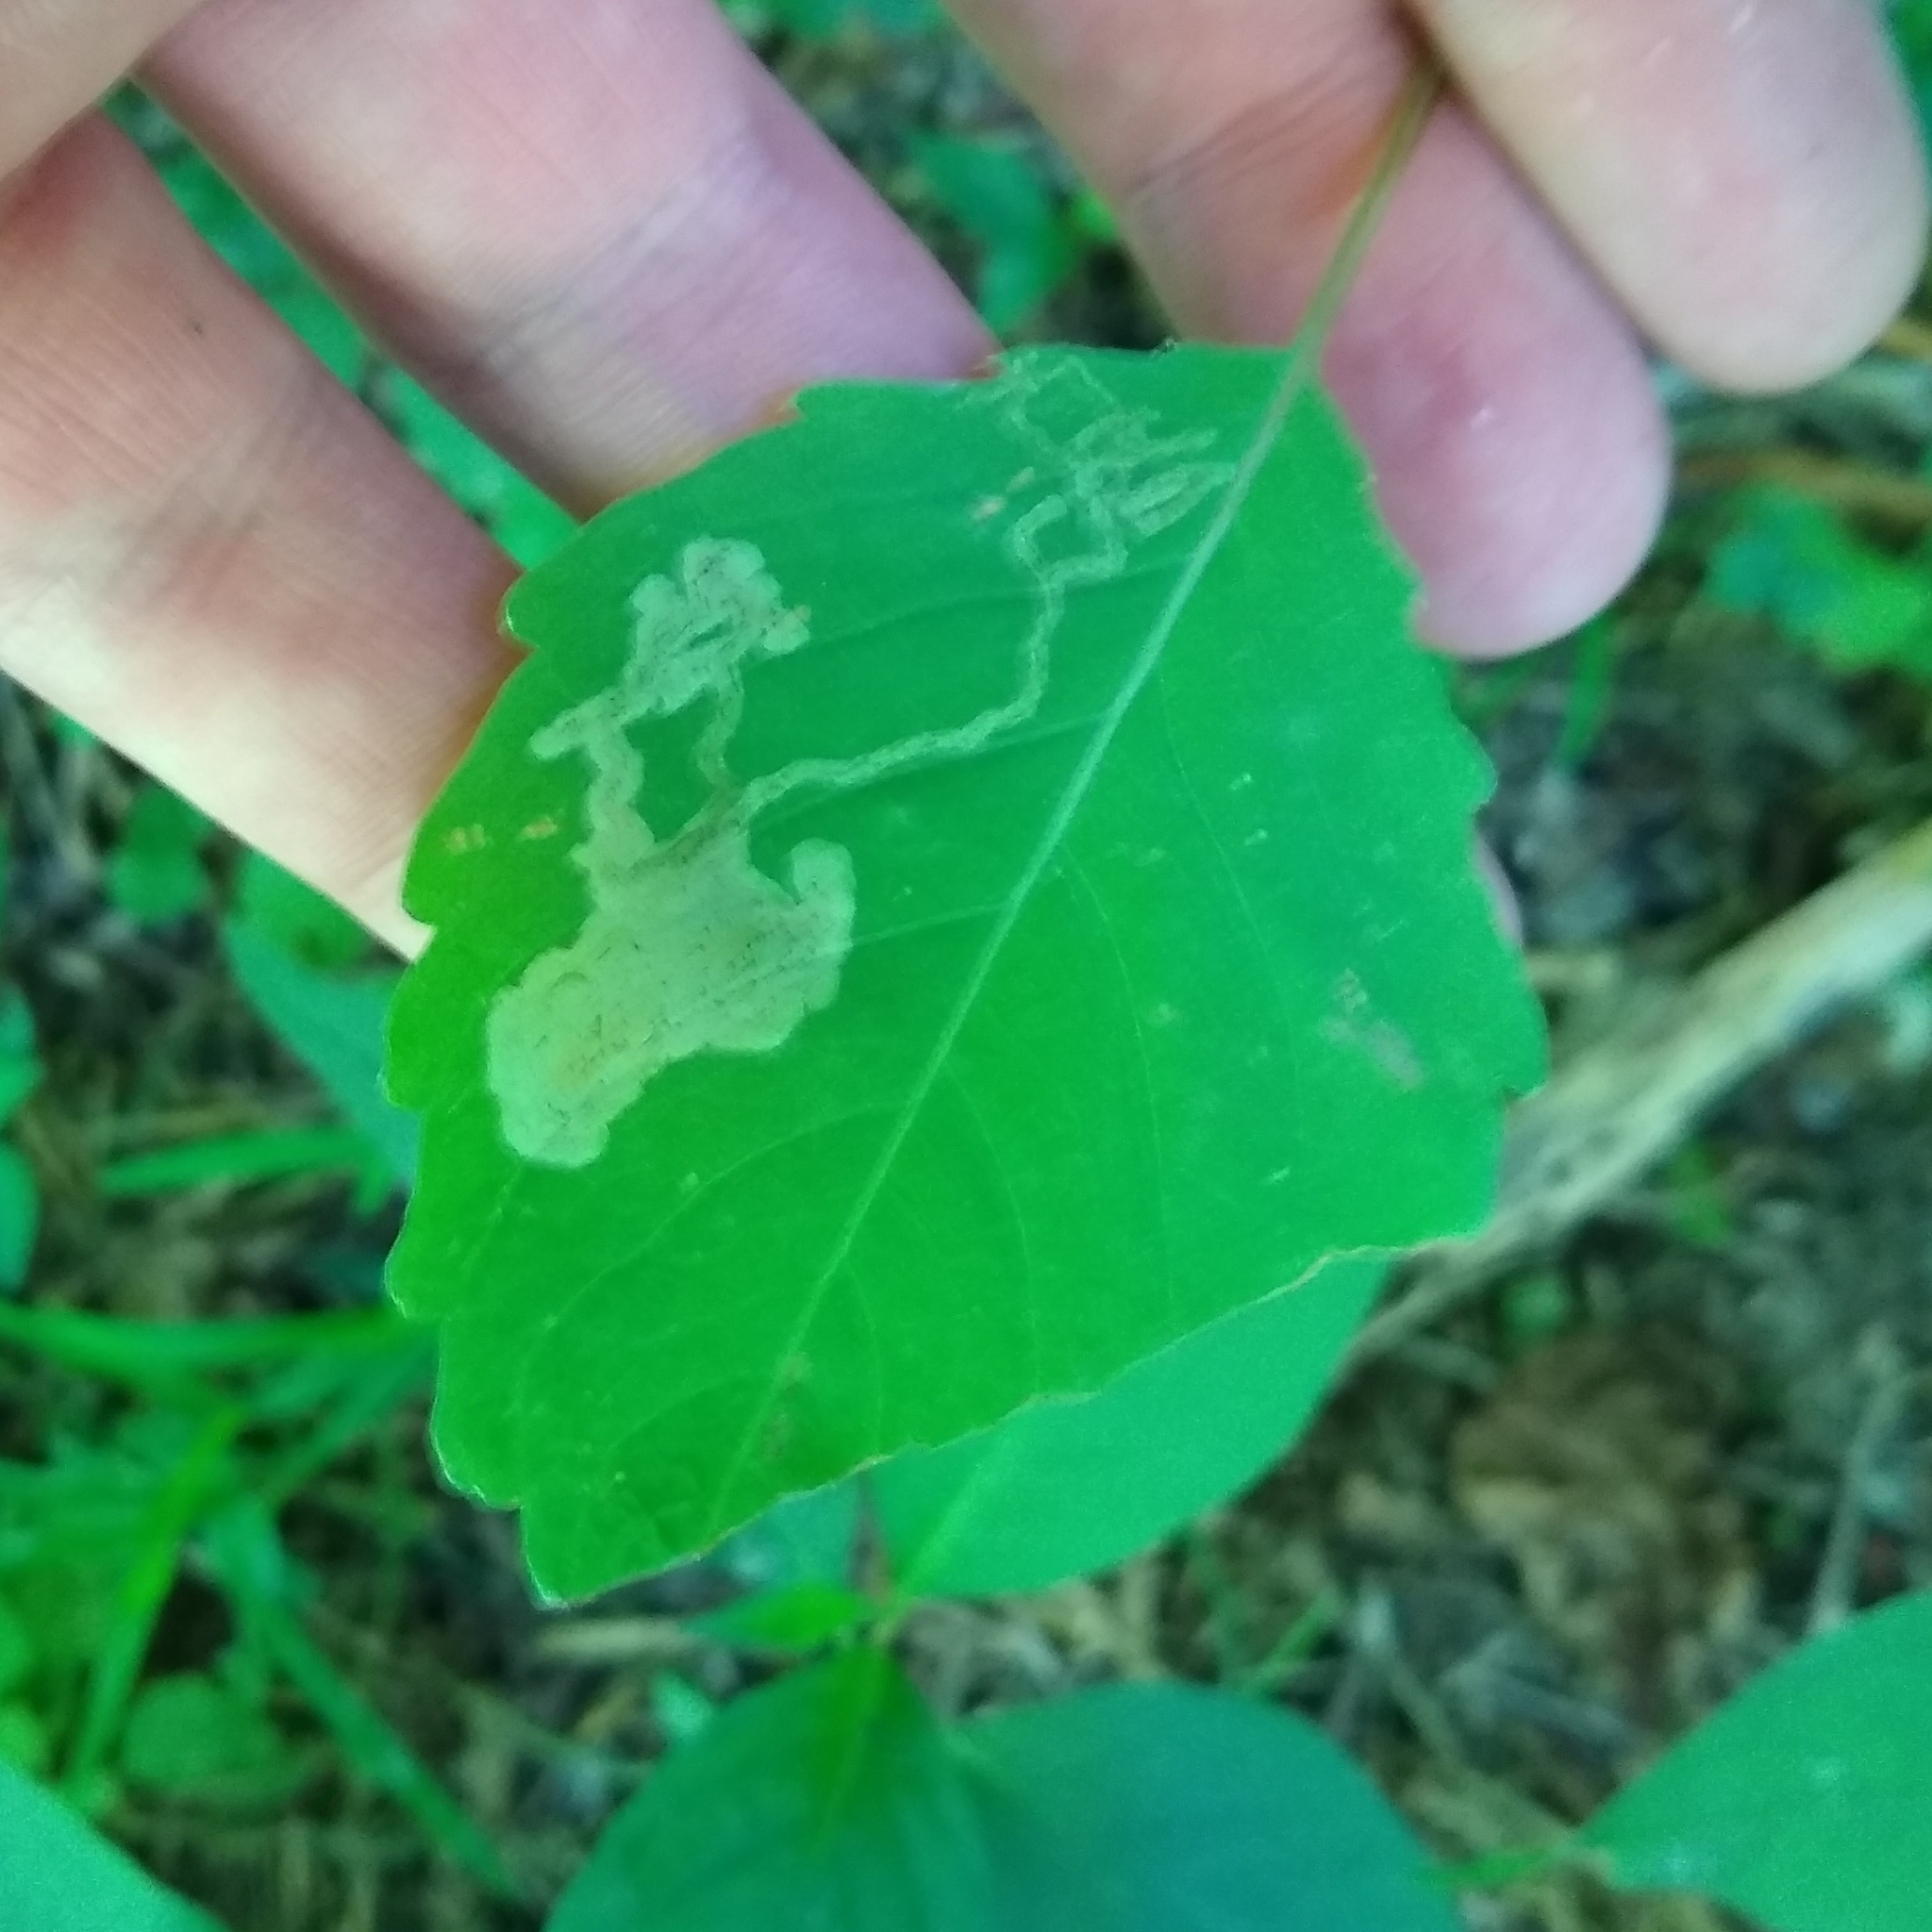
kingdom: Animalia
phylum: Arthropoda
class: Insecta
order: Diptera
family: Agromyzidae
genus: Phytoliriomyza
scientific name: Phytoliriomyza melampyga
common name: Jewelweed leaf-miner fly
